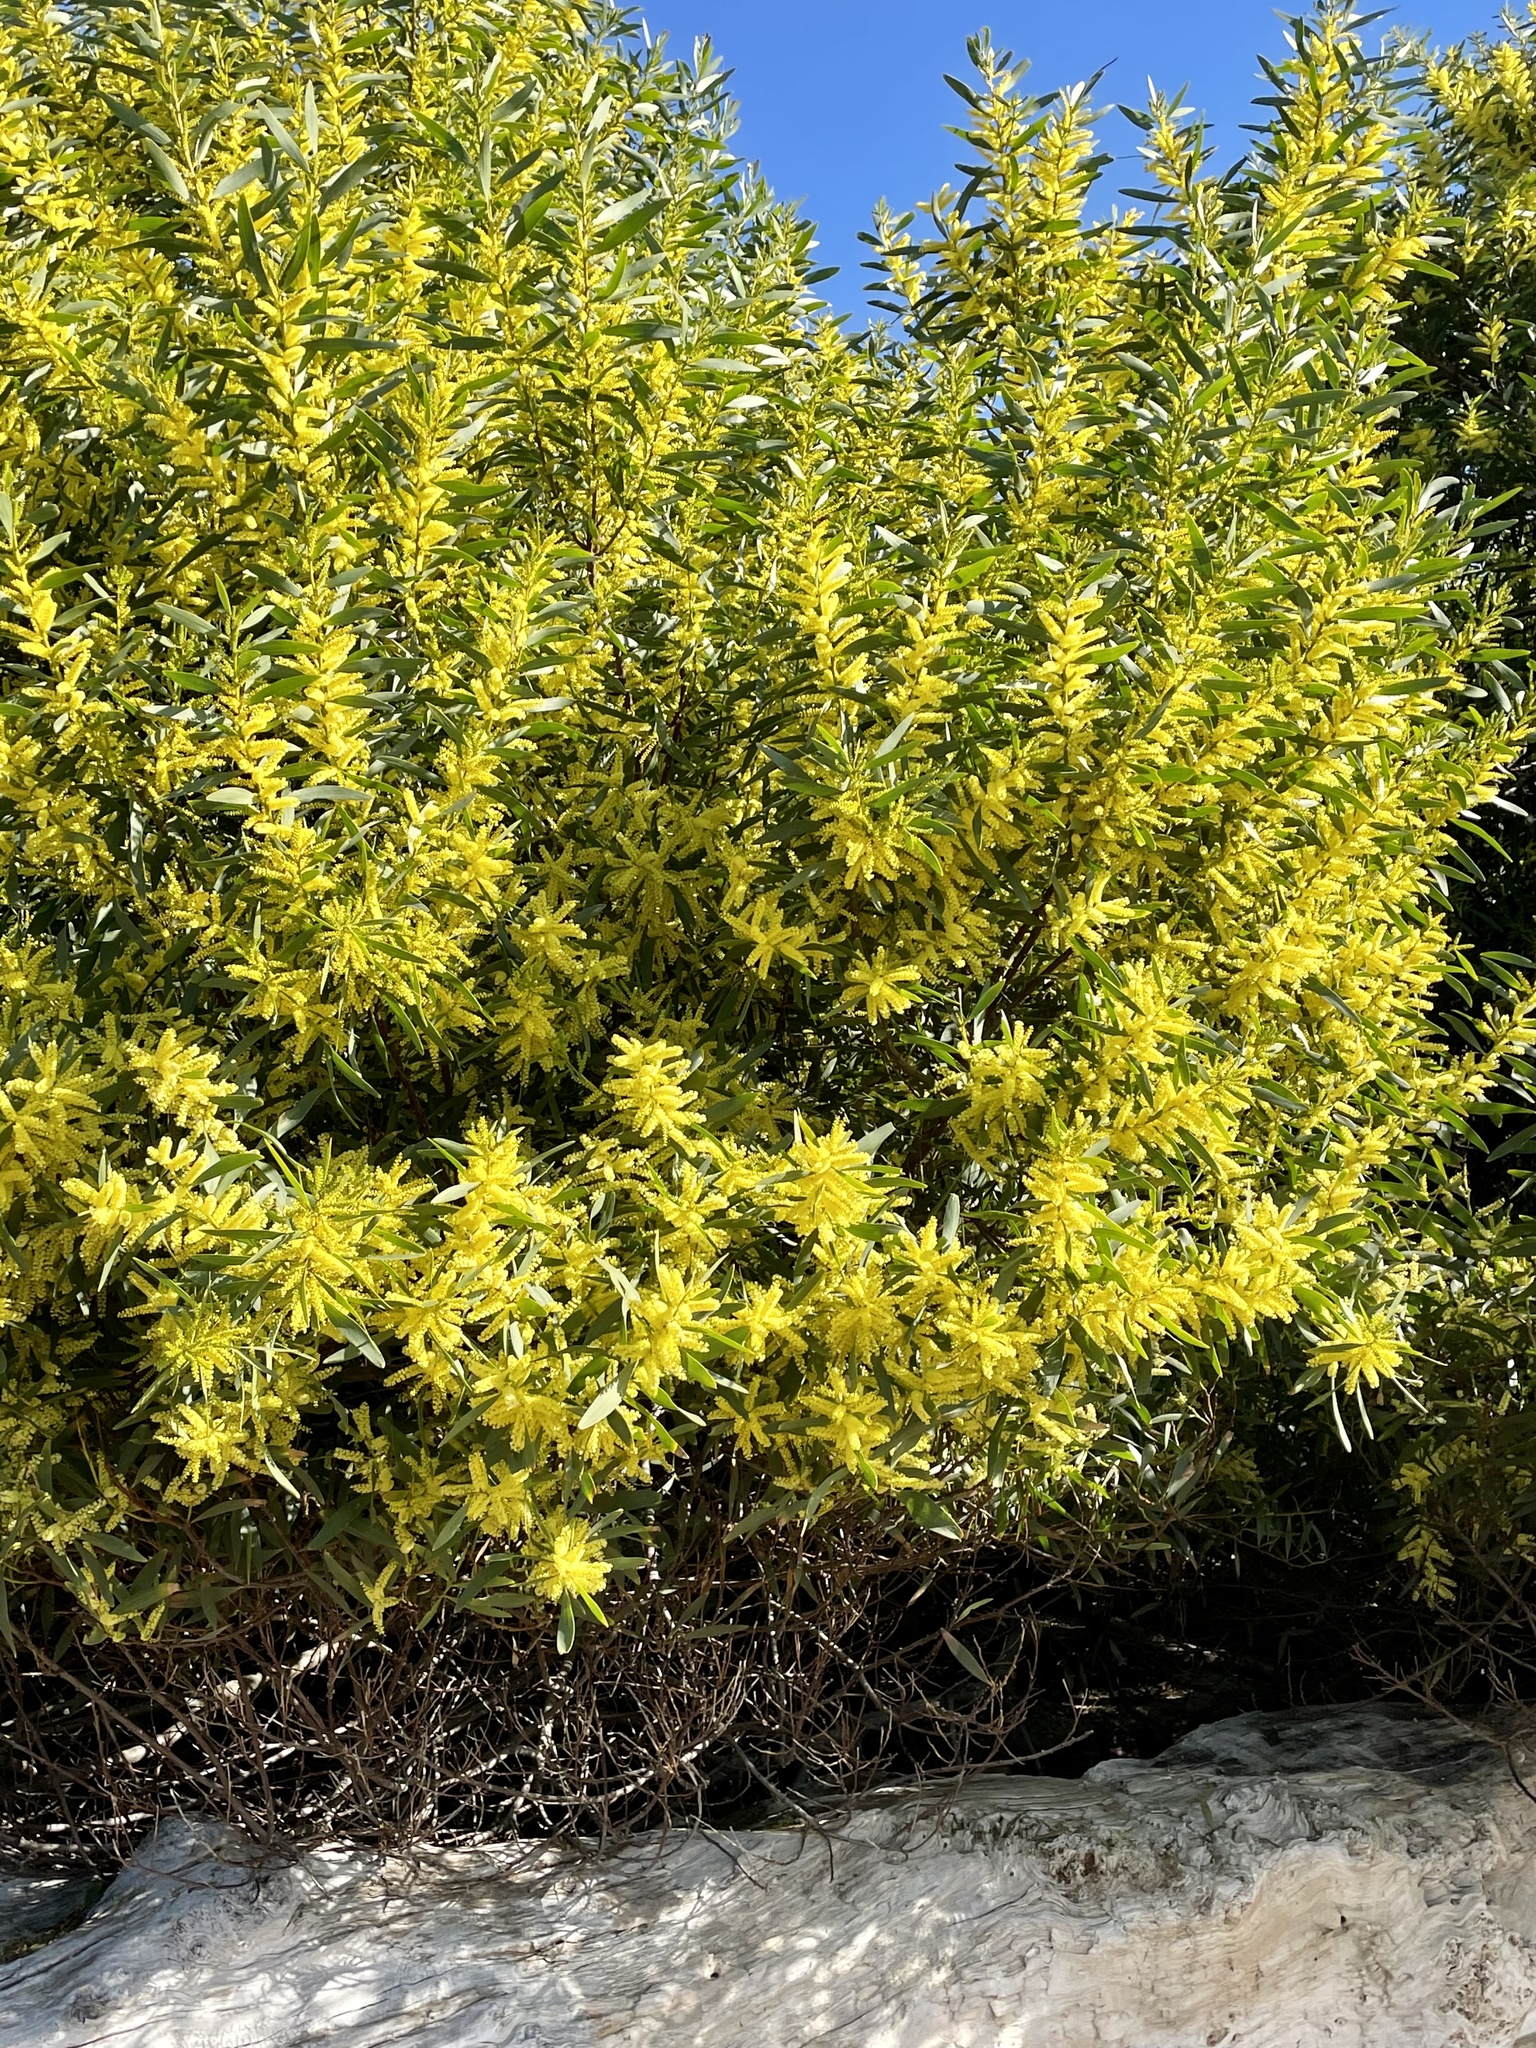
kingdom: Plantae
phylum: Tracheophyta
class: Magnoliopsida
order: Fabales
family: Fabaceae
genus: Acacia
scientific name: Acacia longifolia
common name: Sydney golden wattle
